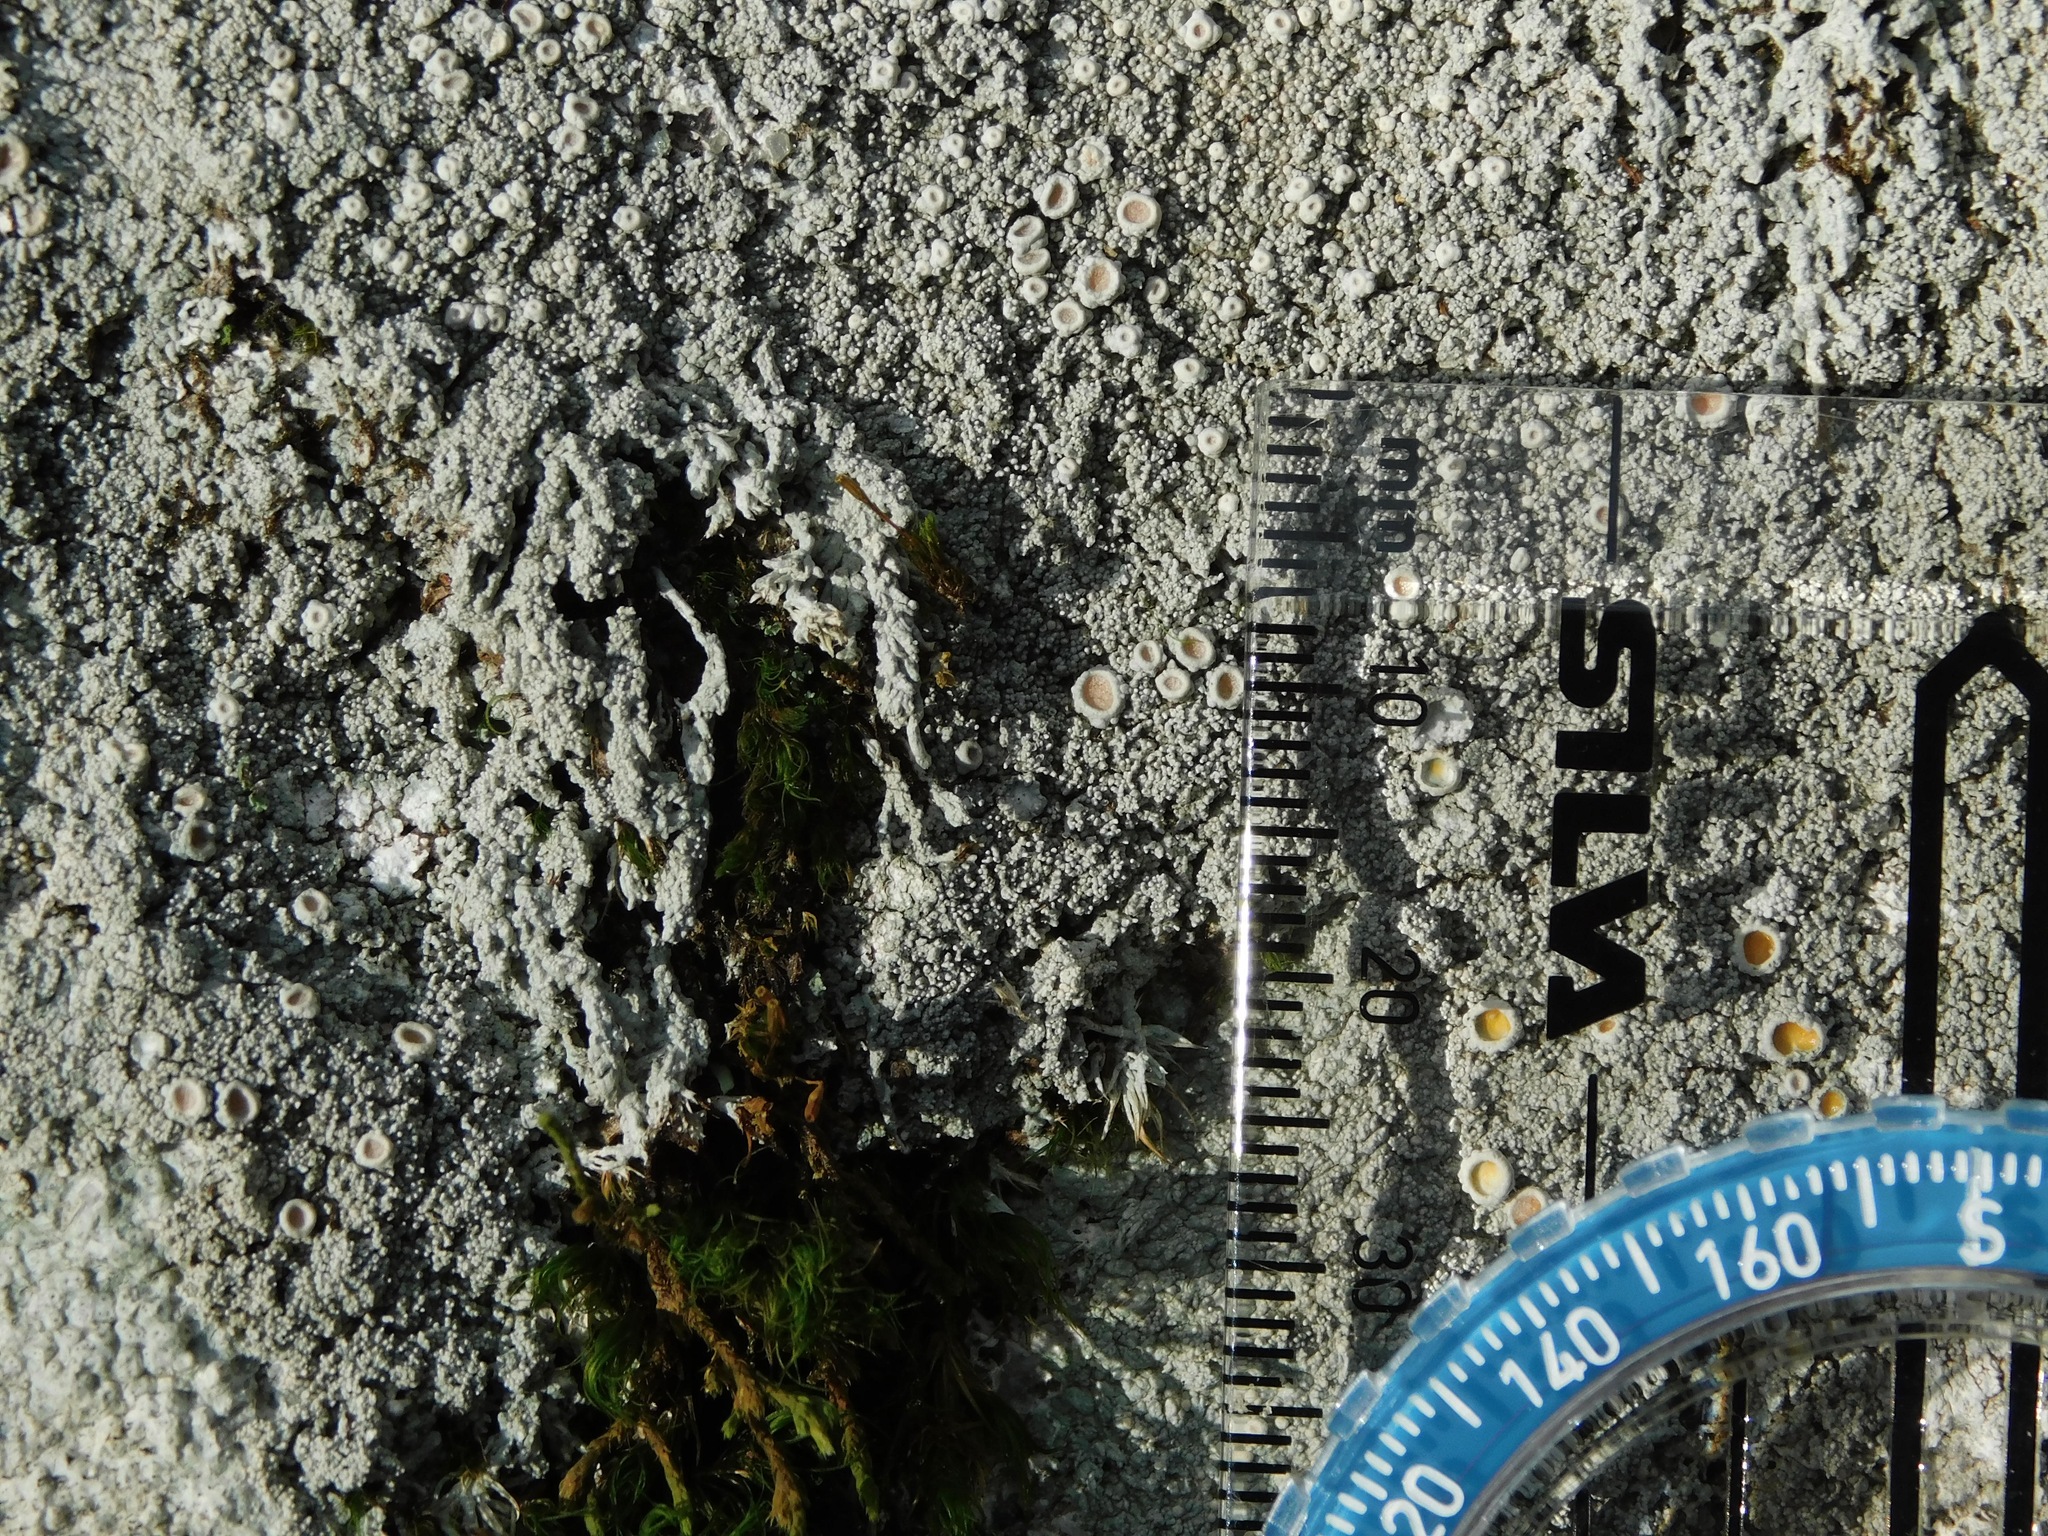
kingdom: Fungi
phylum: Ascomycota
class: Lecanoromycetes
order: Pertusariales
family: Ochrolechiaceae
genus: Ochrolechia
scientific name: Ochrolechia yasudae
